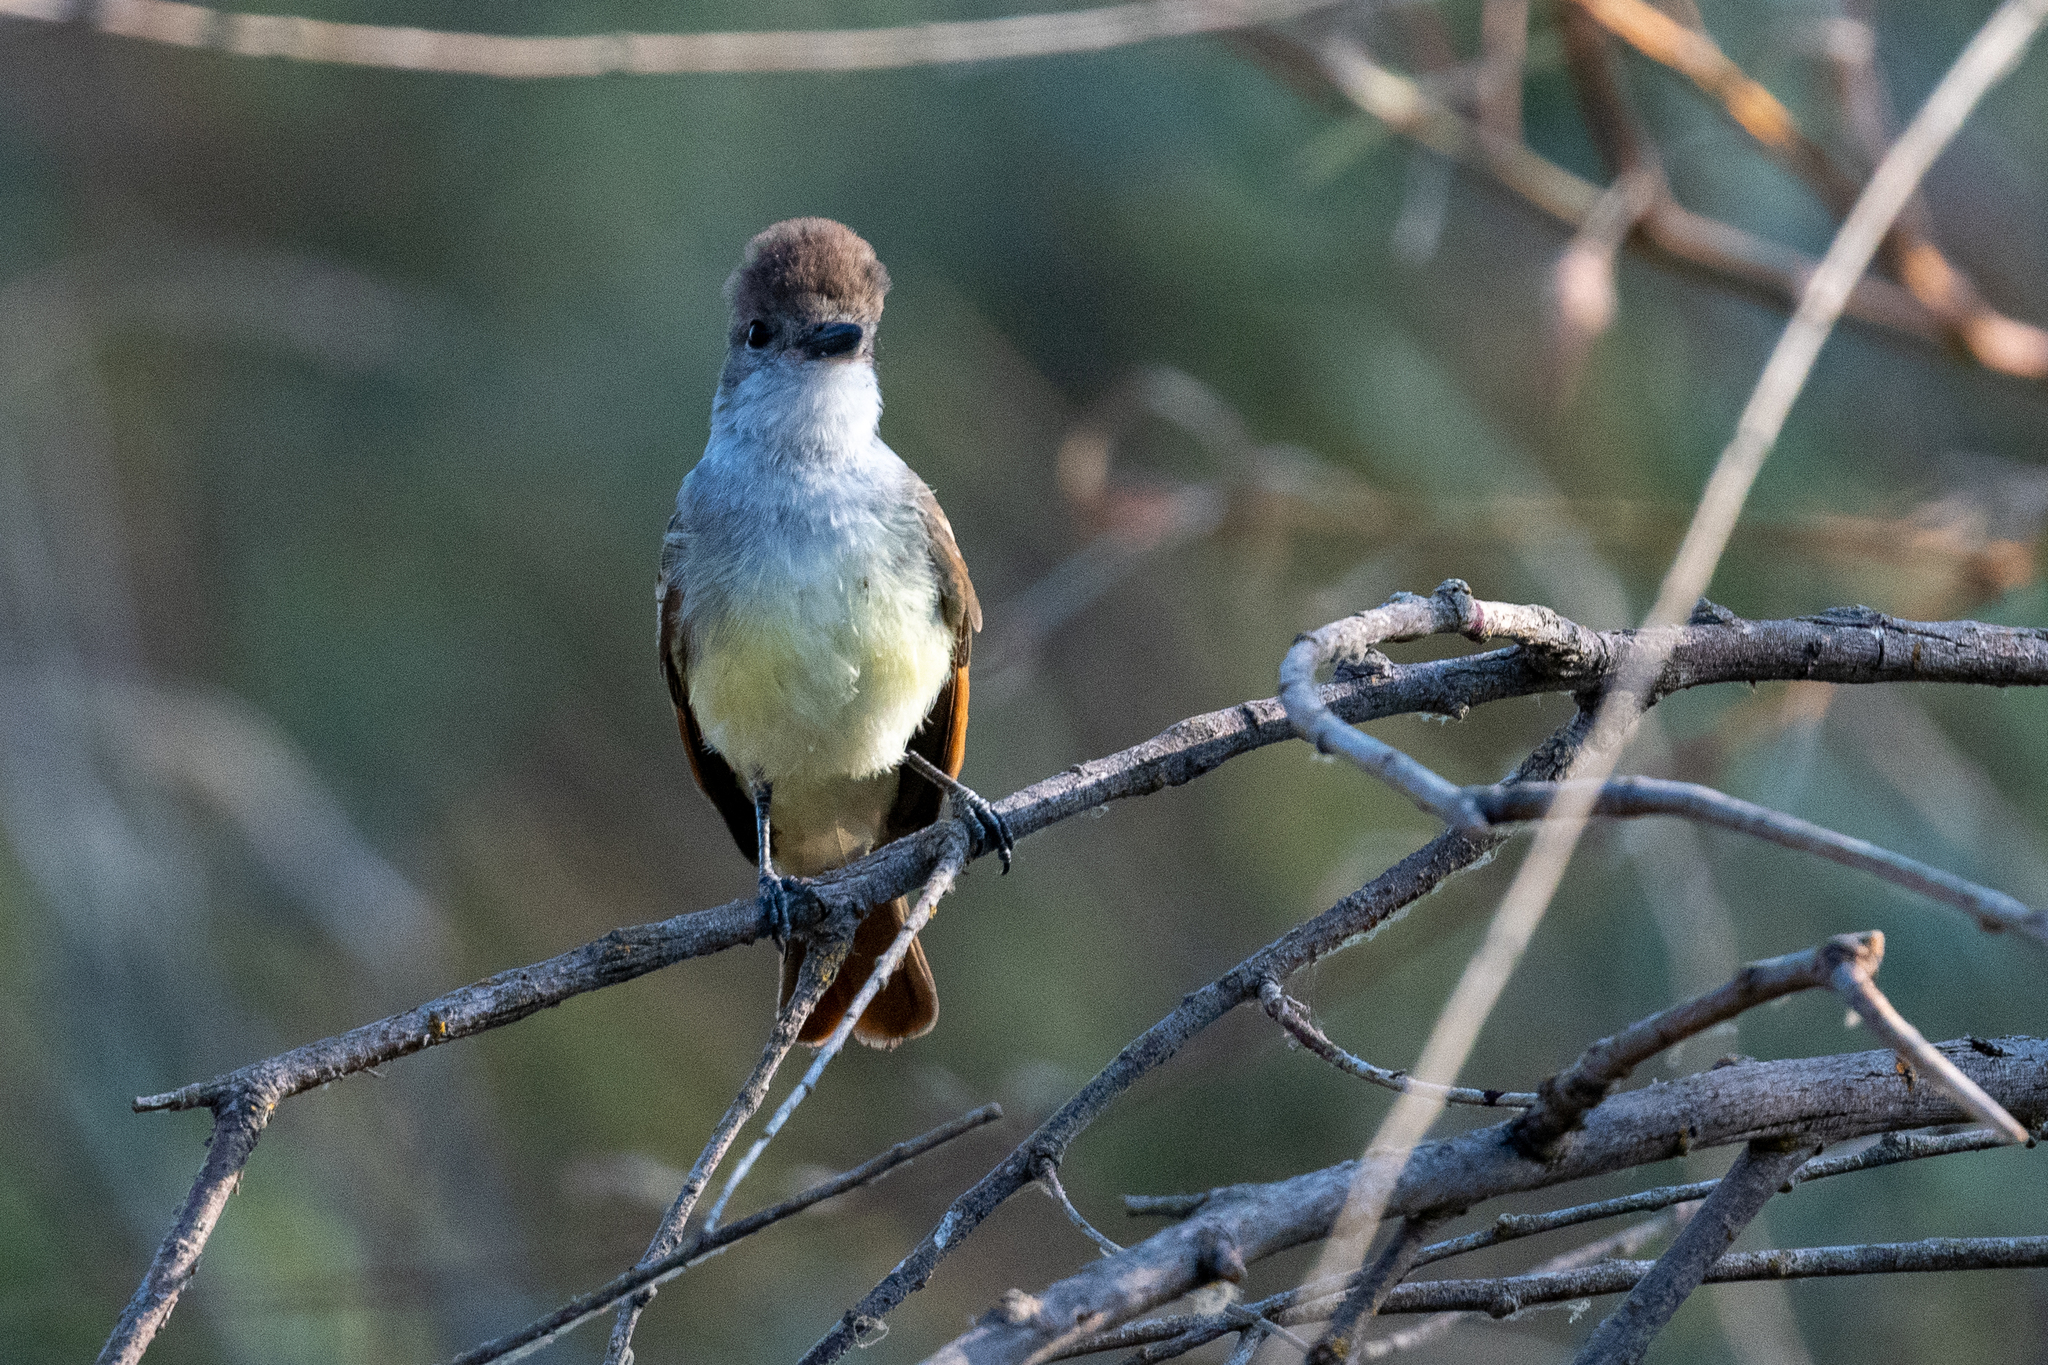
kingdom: Animalia
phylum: Chordata
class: Aves
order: Passeriformes
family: Tyrannidae
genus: Myiarchus
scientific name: Myiarchus cinerascens
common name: Ash-throated flycatcher
